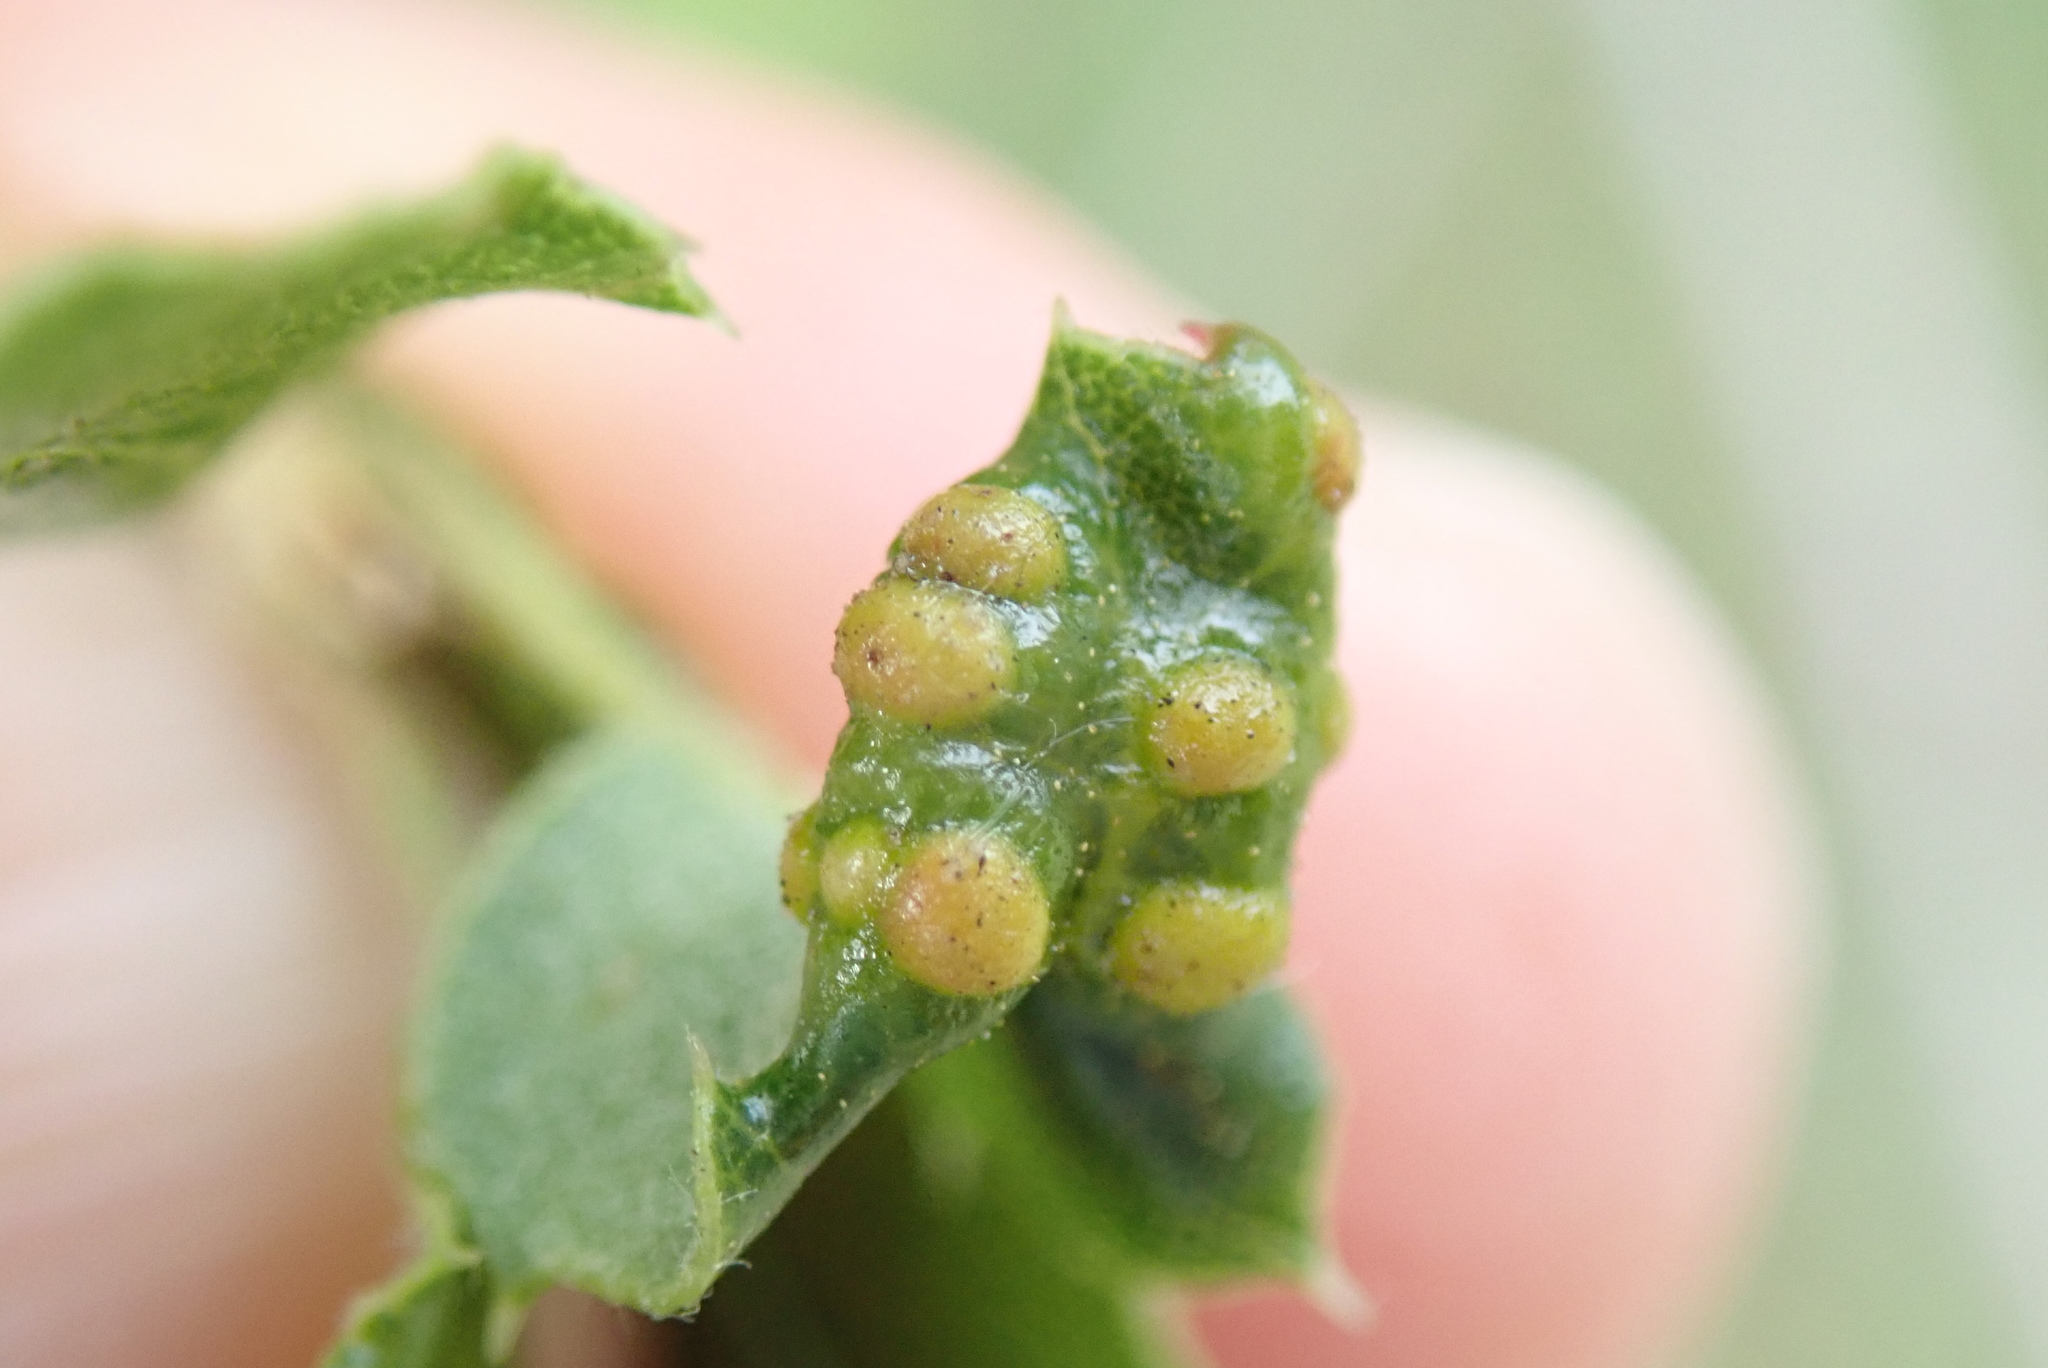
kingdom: Animalia
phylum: Arthropoda
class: Insecta
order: Hymenoptera
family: Cynipidae
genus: Neuroterus
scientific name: Neuroterus saltarius
